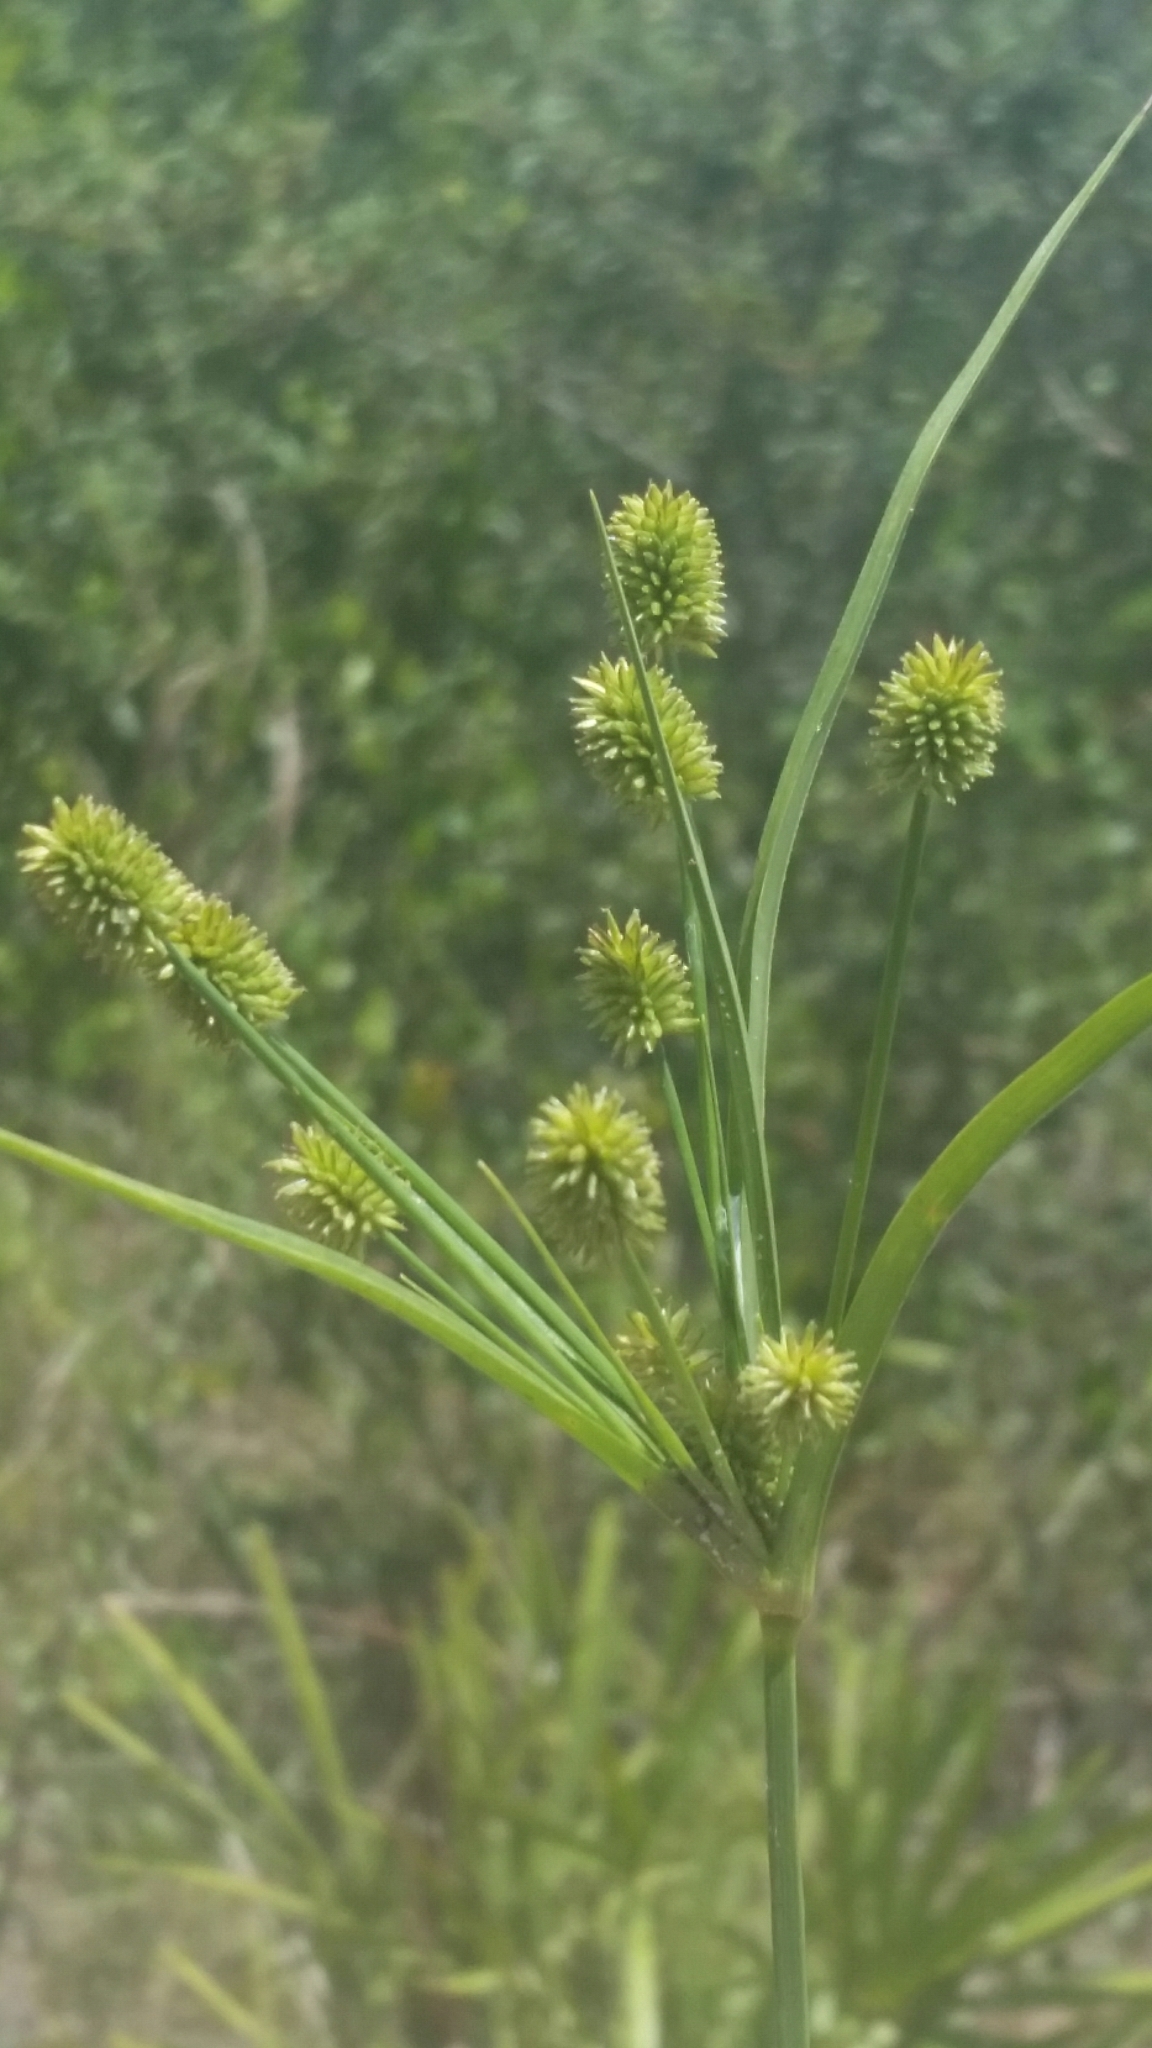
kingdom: Plantae
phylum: Tracheophyta
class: Liliopsida
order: Poales
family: Cyperaceae
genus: Cyperus
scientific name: Cyperus retrorsus
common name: Pinebarren flat sedge
